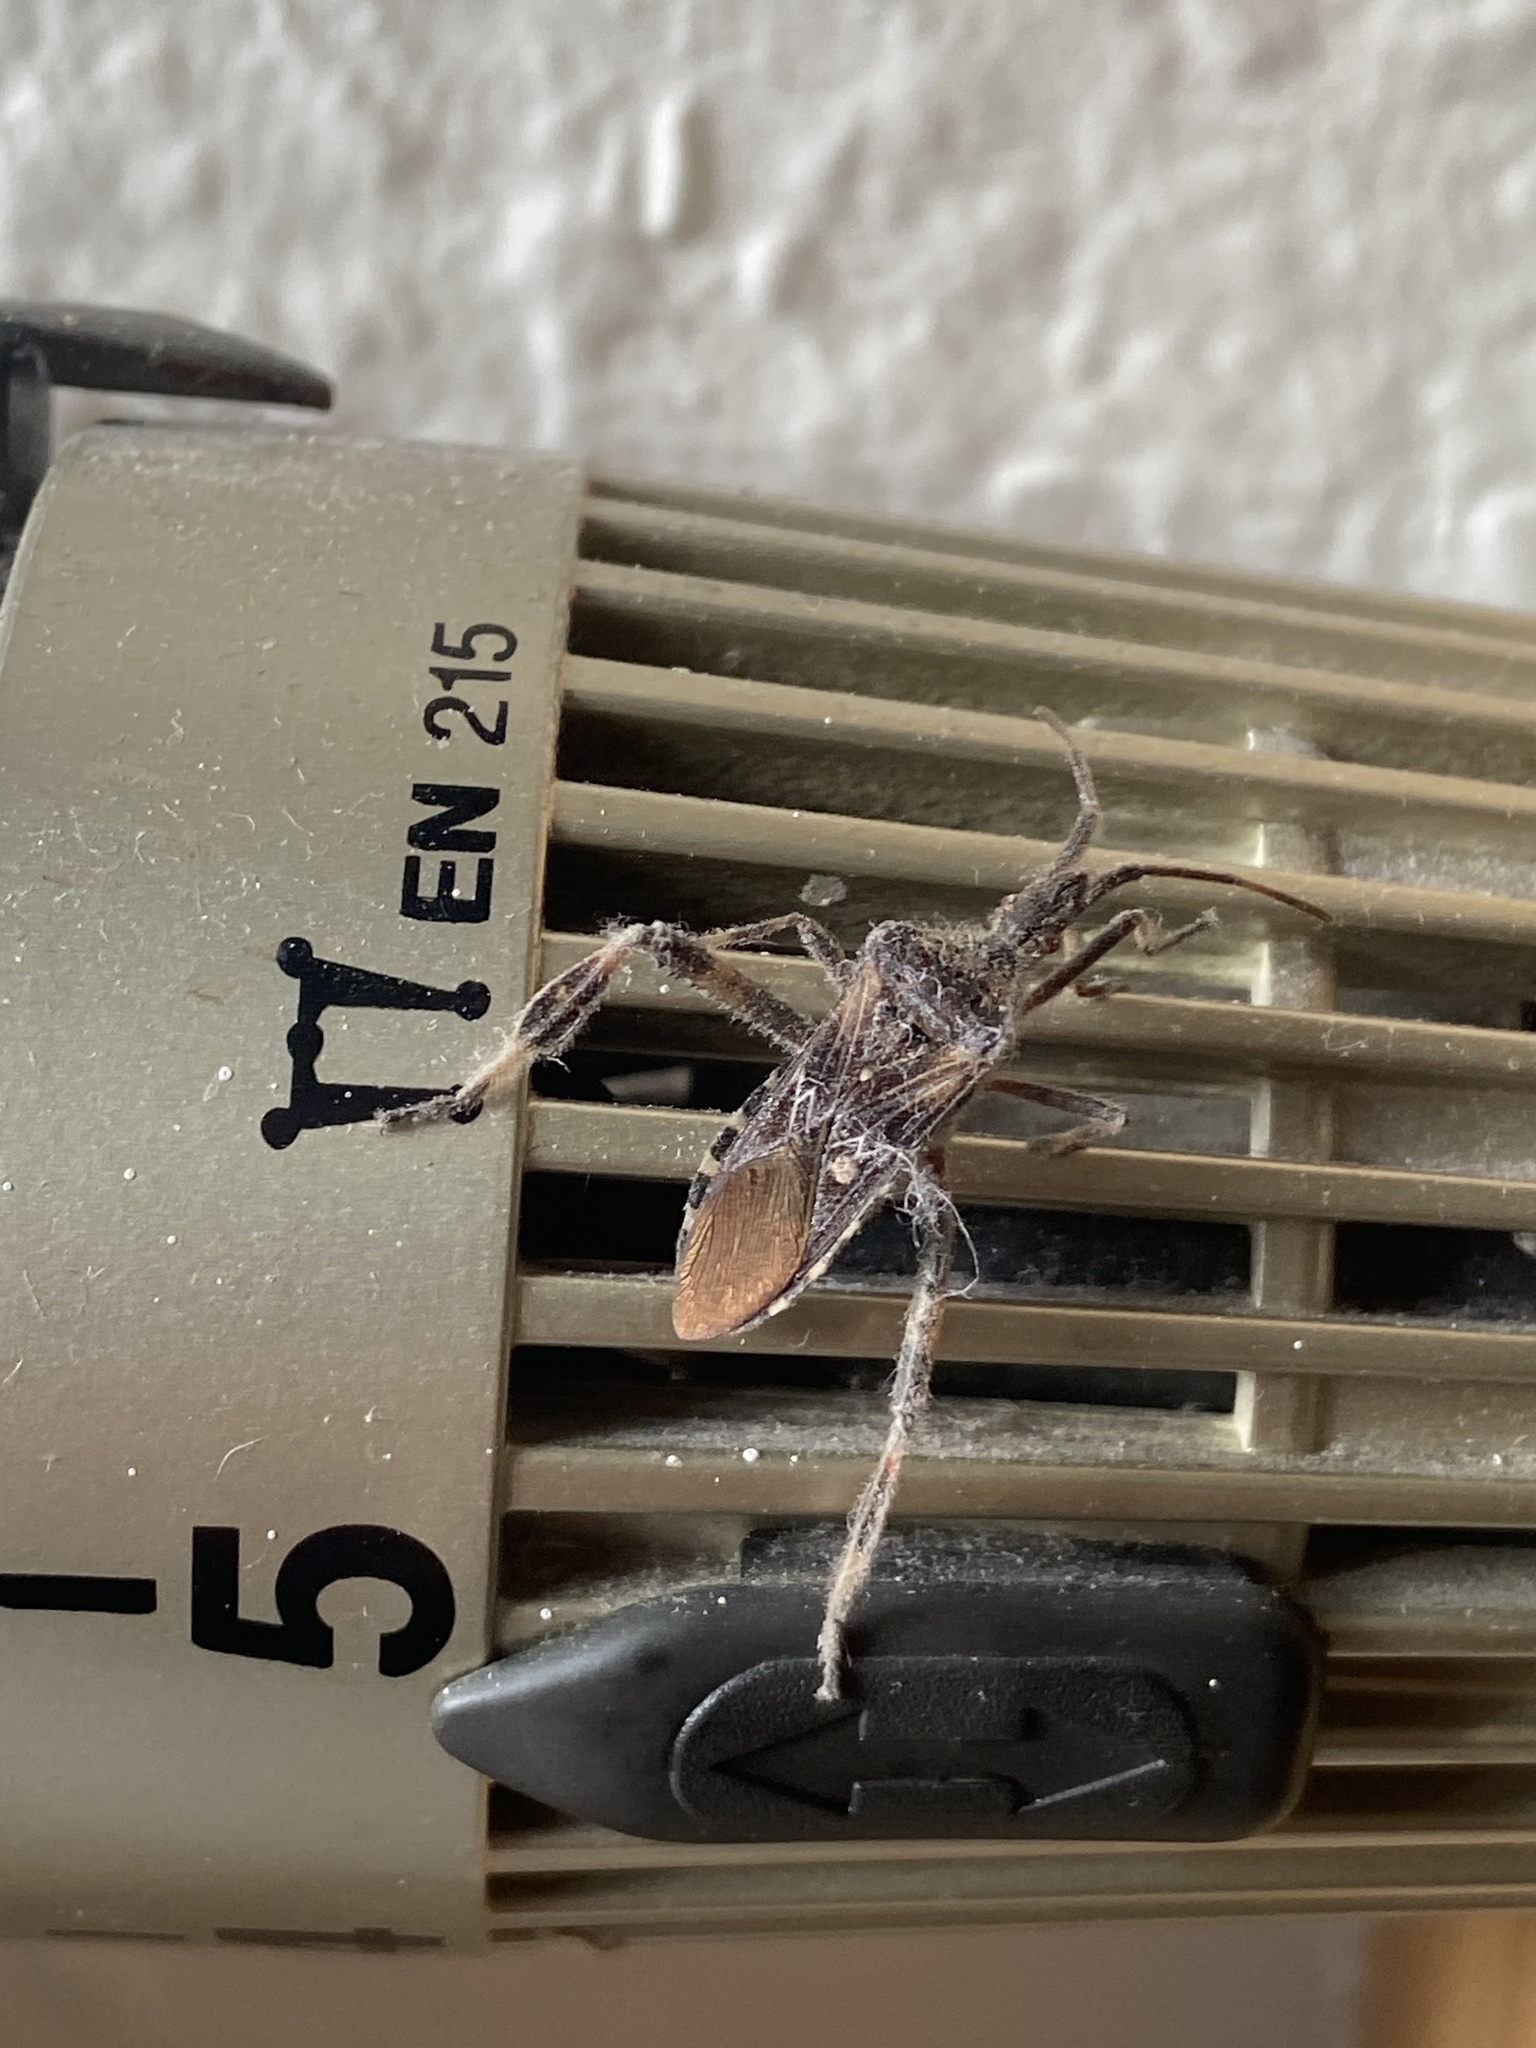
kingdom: Animalia
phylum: Arthropoda
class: Insecta
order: Hemiptera
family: Coreidae
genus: Leptoglossus
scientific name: Leptoglossus occidentalis
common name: Western conifer-seed bug
